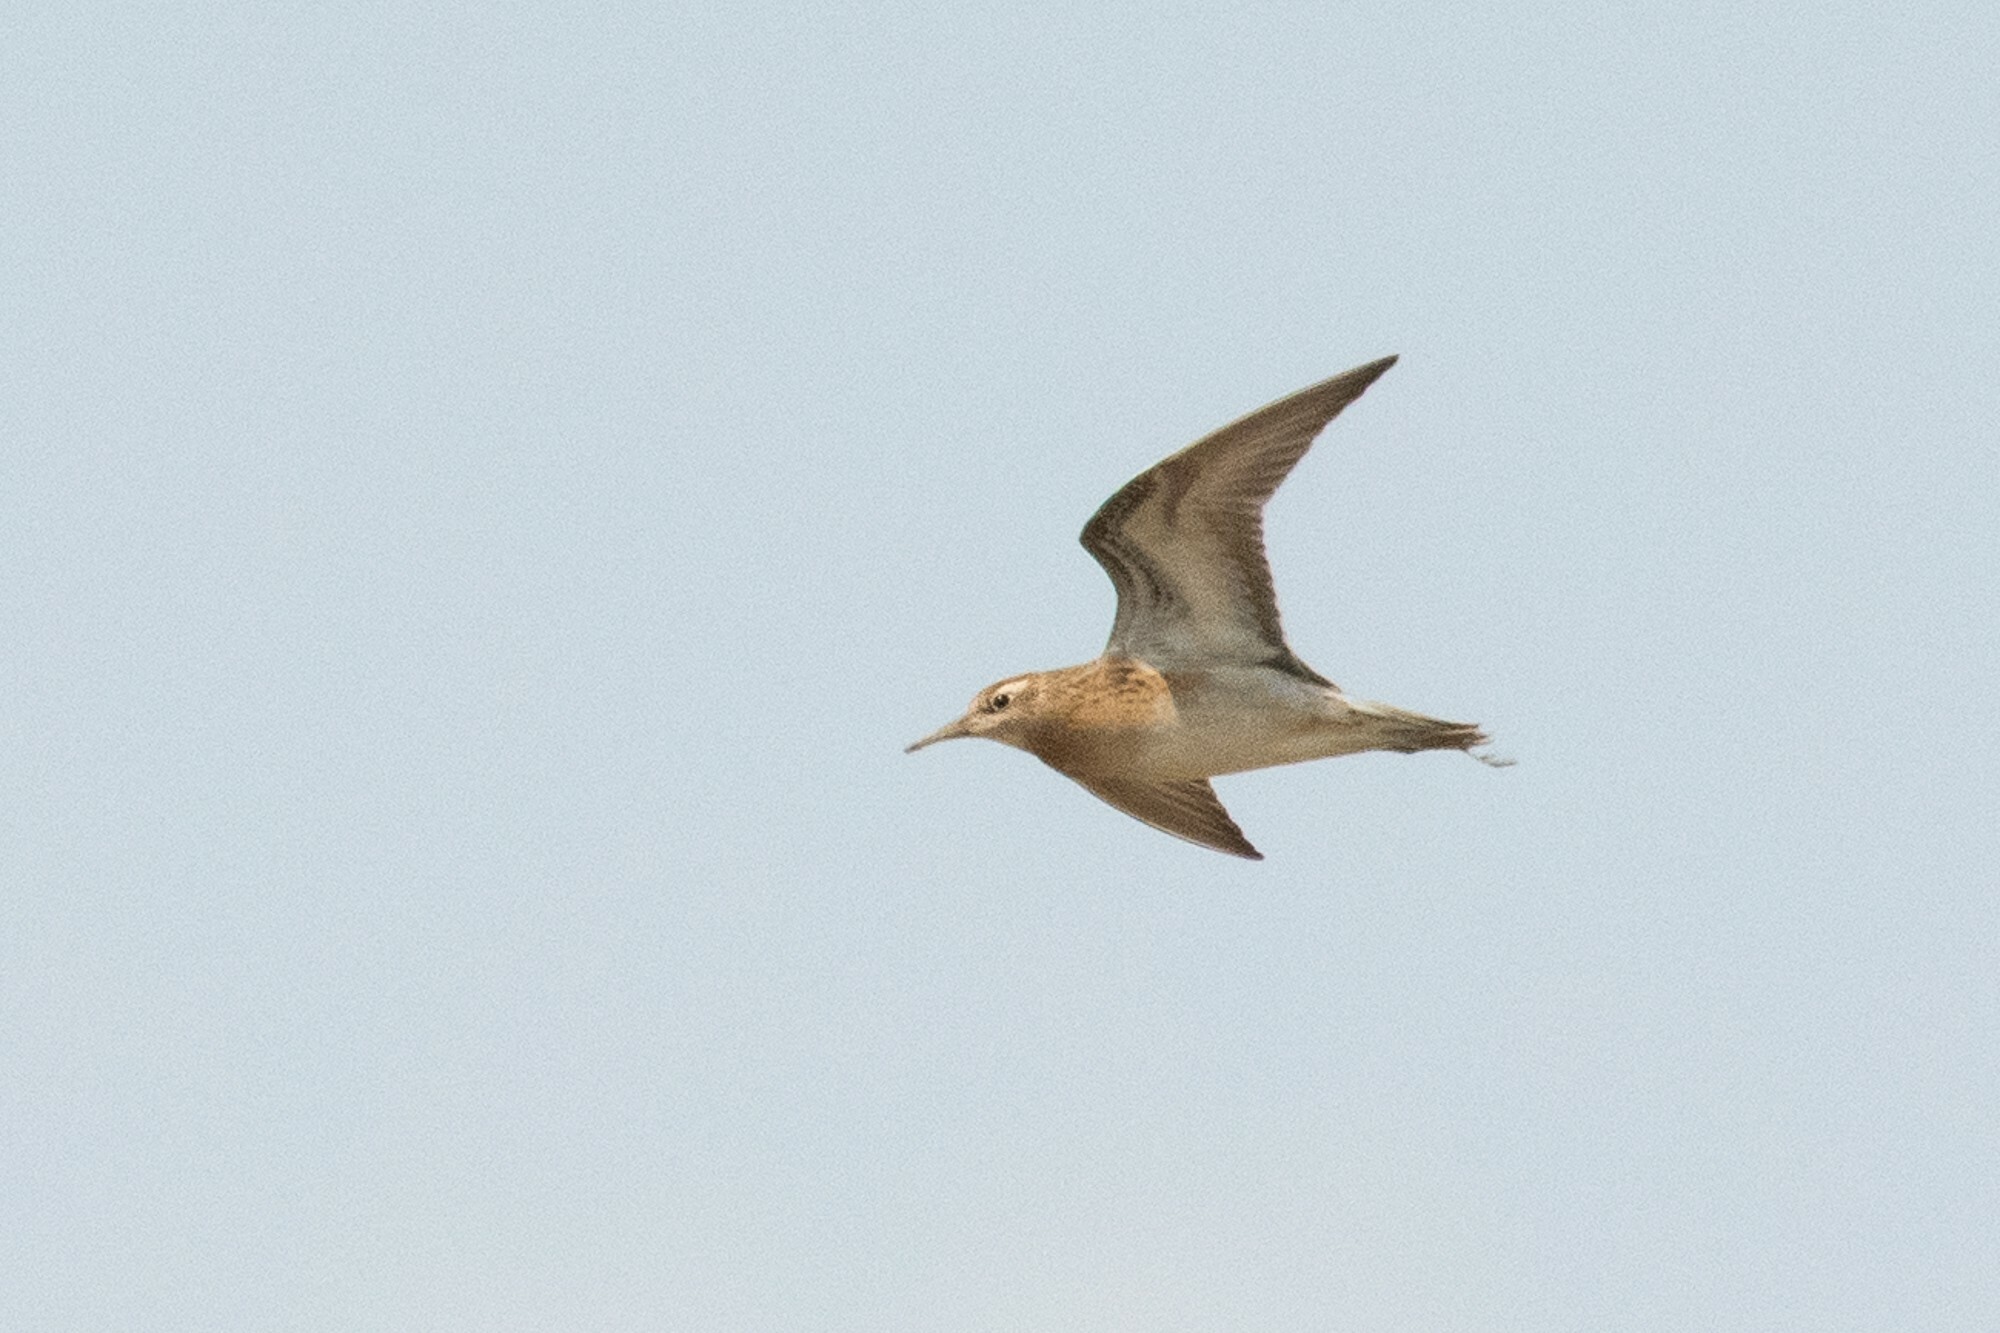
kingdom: Animalia
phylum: Chordata
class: Aves
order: Charadriiformes
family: Scolopacidae
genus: Calidris
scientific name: Calidris acuminata
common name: Sharp-tailed sandpiper
